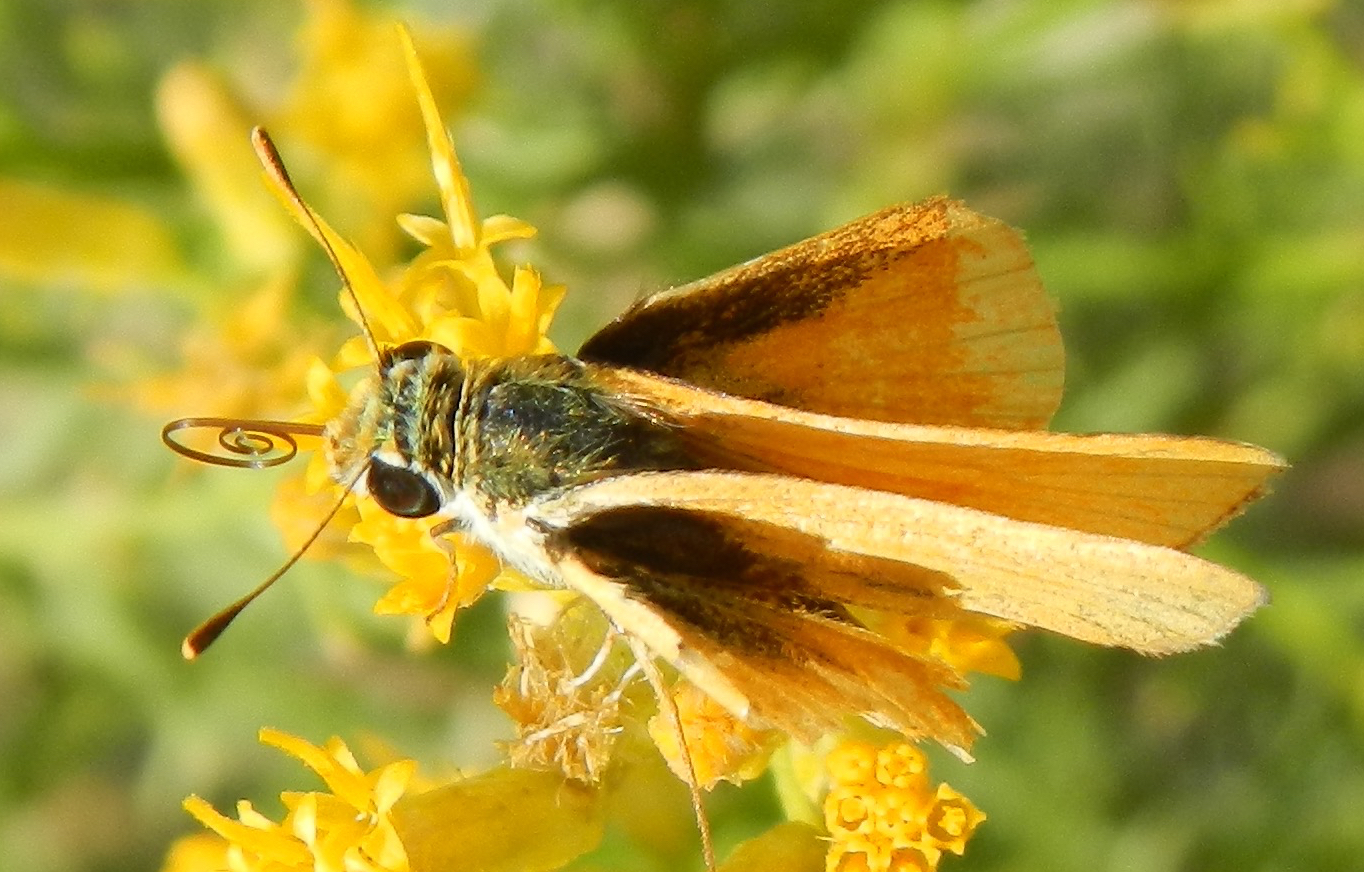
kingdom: Animalia
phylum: Arthropoda
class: Insecta
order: Lepidoptera
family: Hesperiidae
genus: Copaeodes
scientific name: Copaeodes aurantiaca
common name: Orange skipperling
